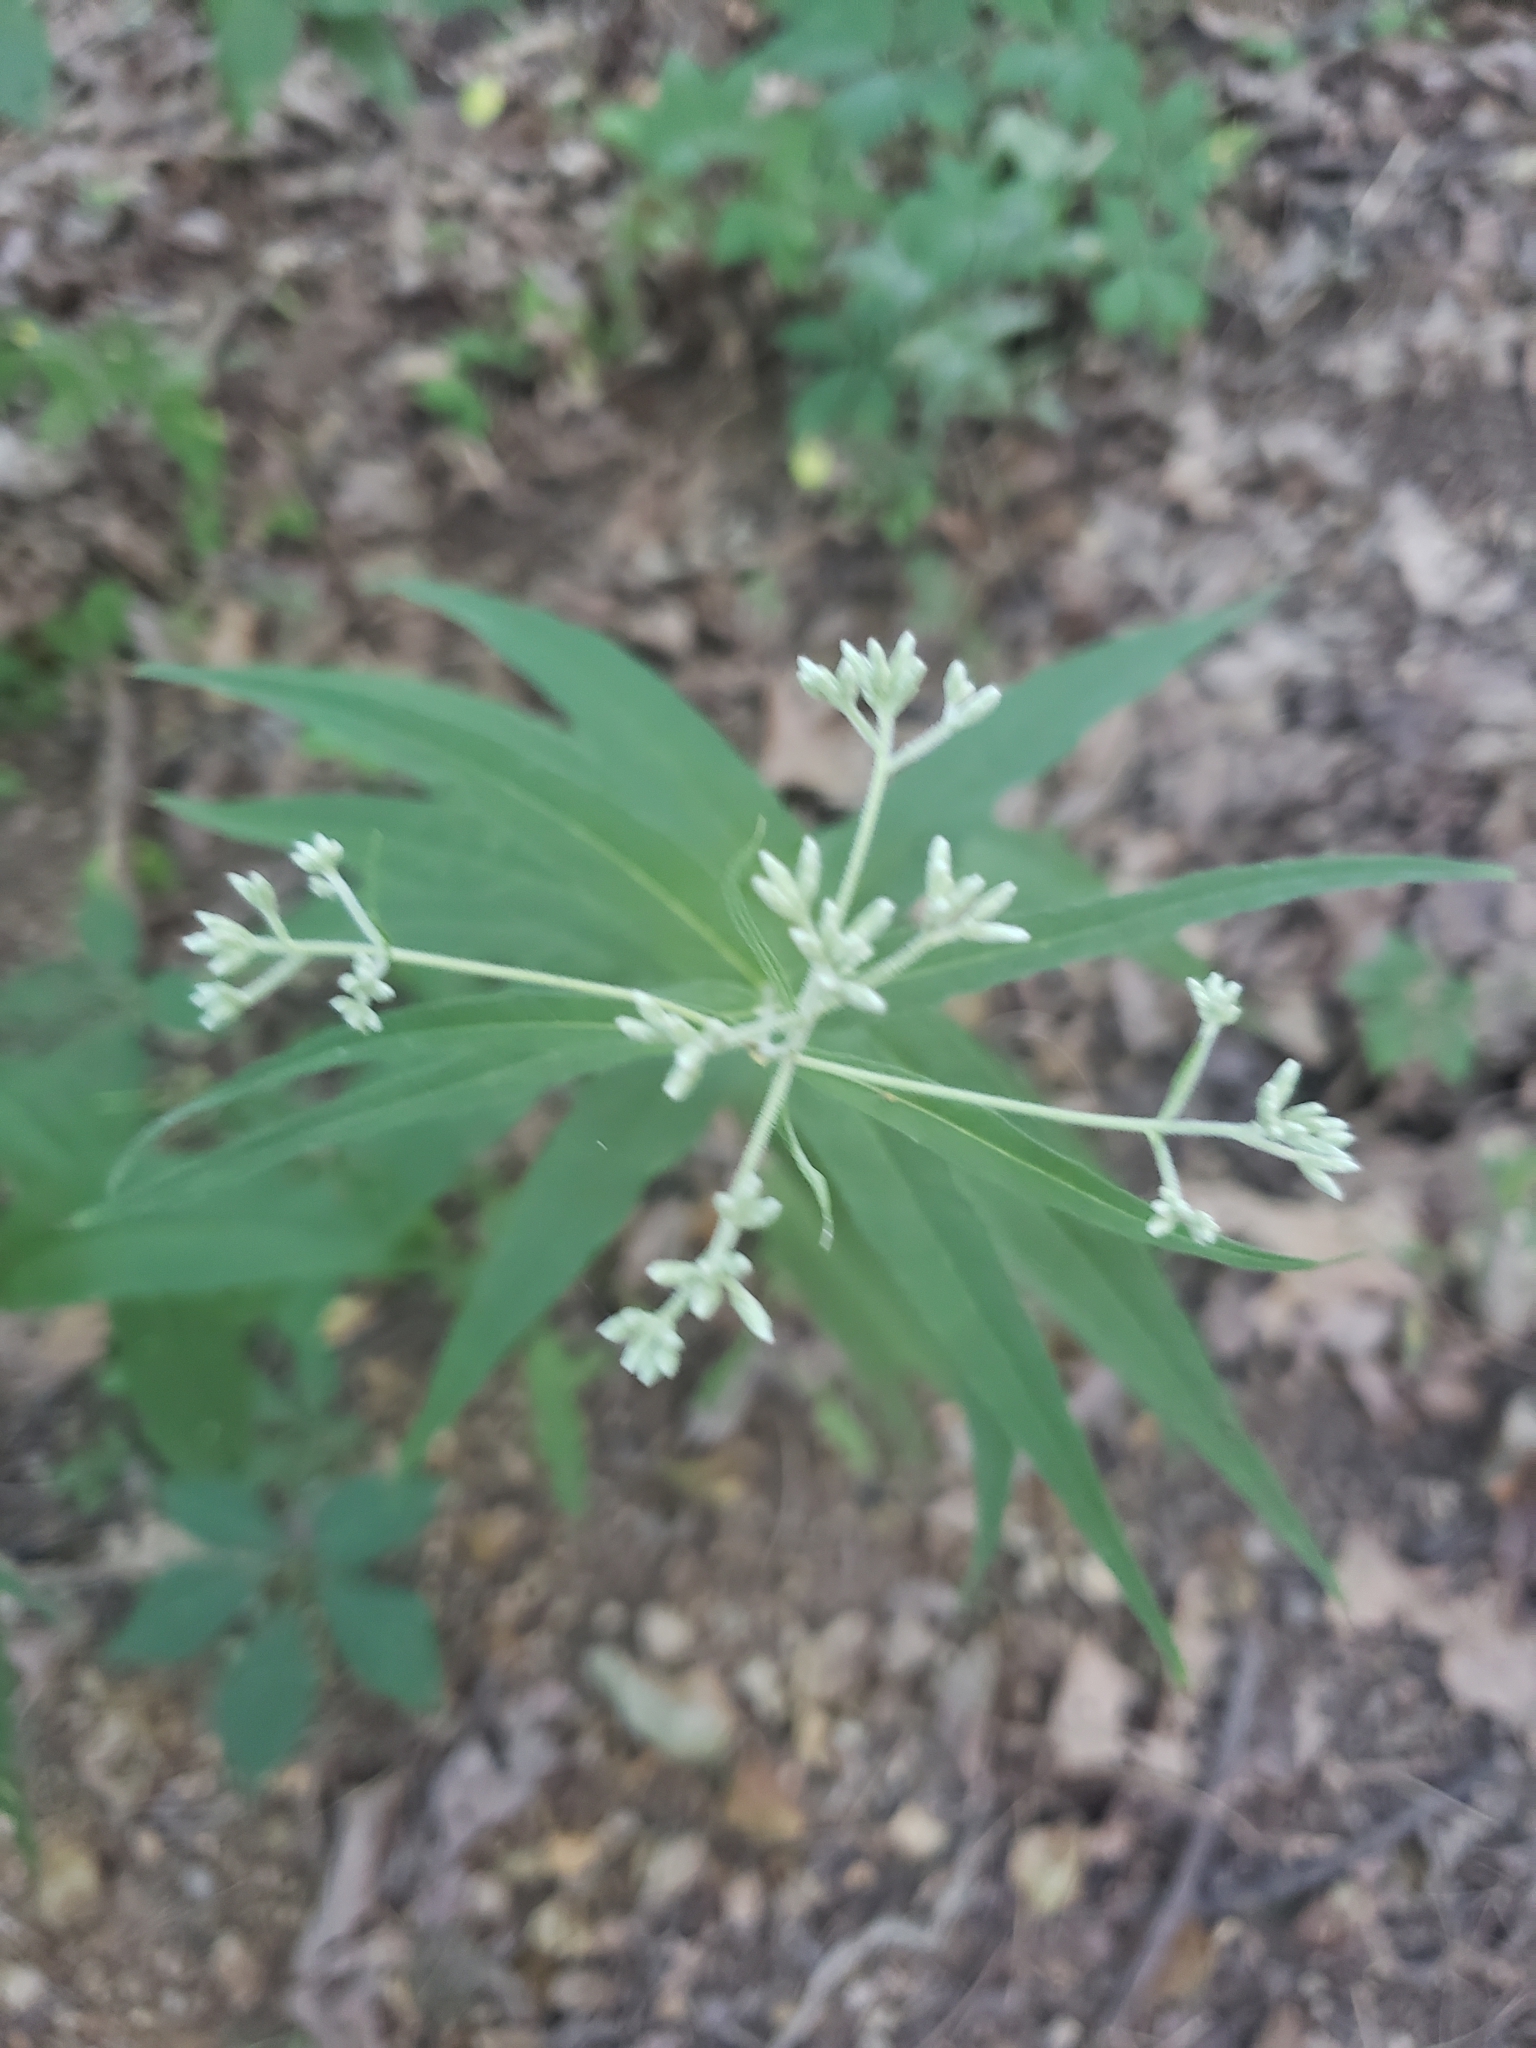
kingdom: Plantae
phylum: Tracheophyta
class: Magnoliopsida
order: Asterales
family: Asteraceae
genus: Eupatorium
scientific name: Eupatorium sessilifolium
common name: Upland boneset
